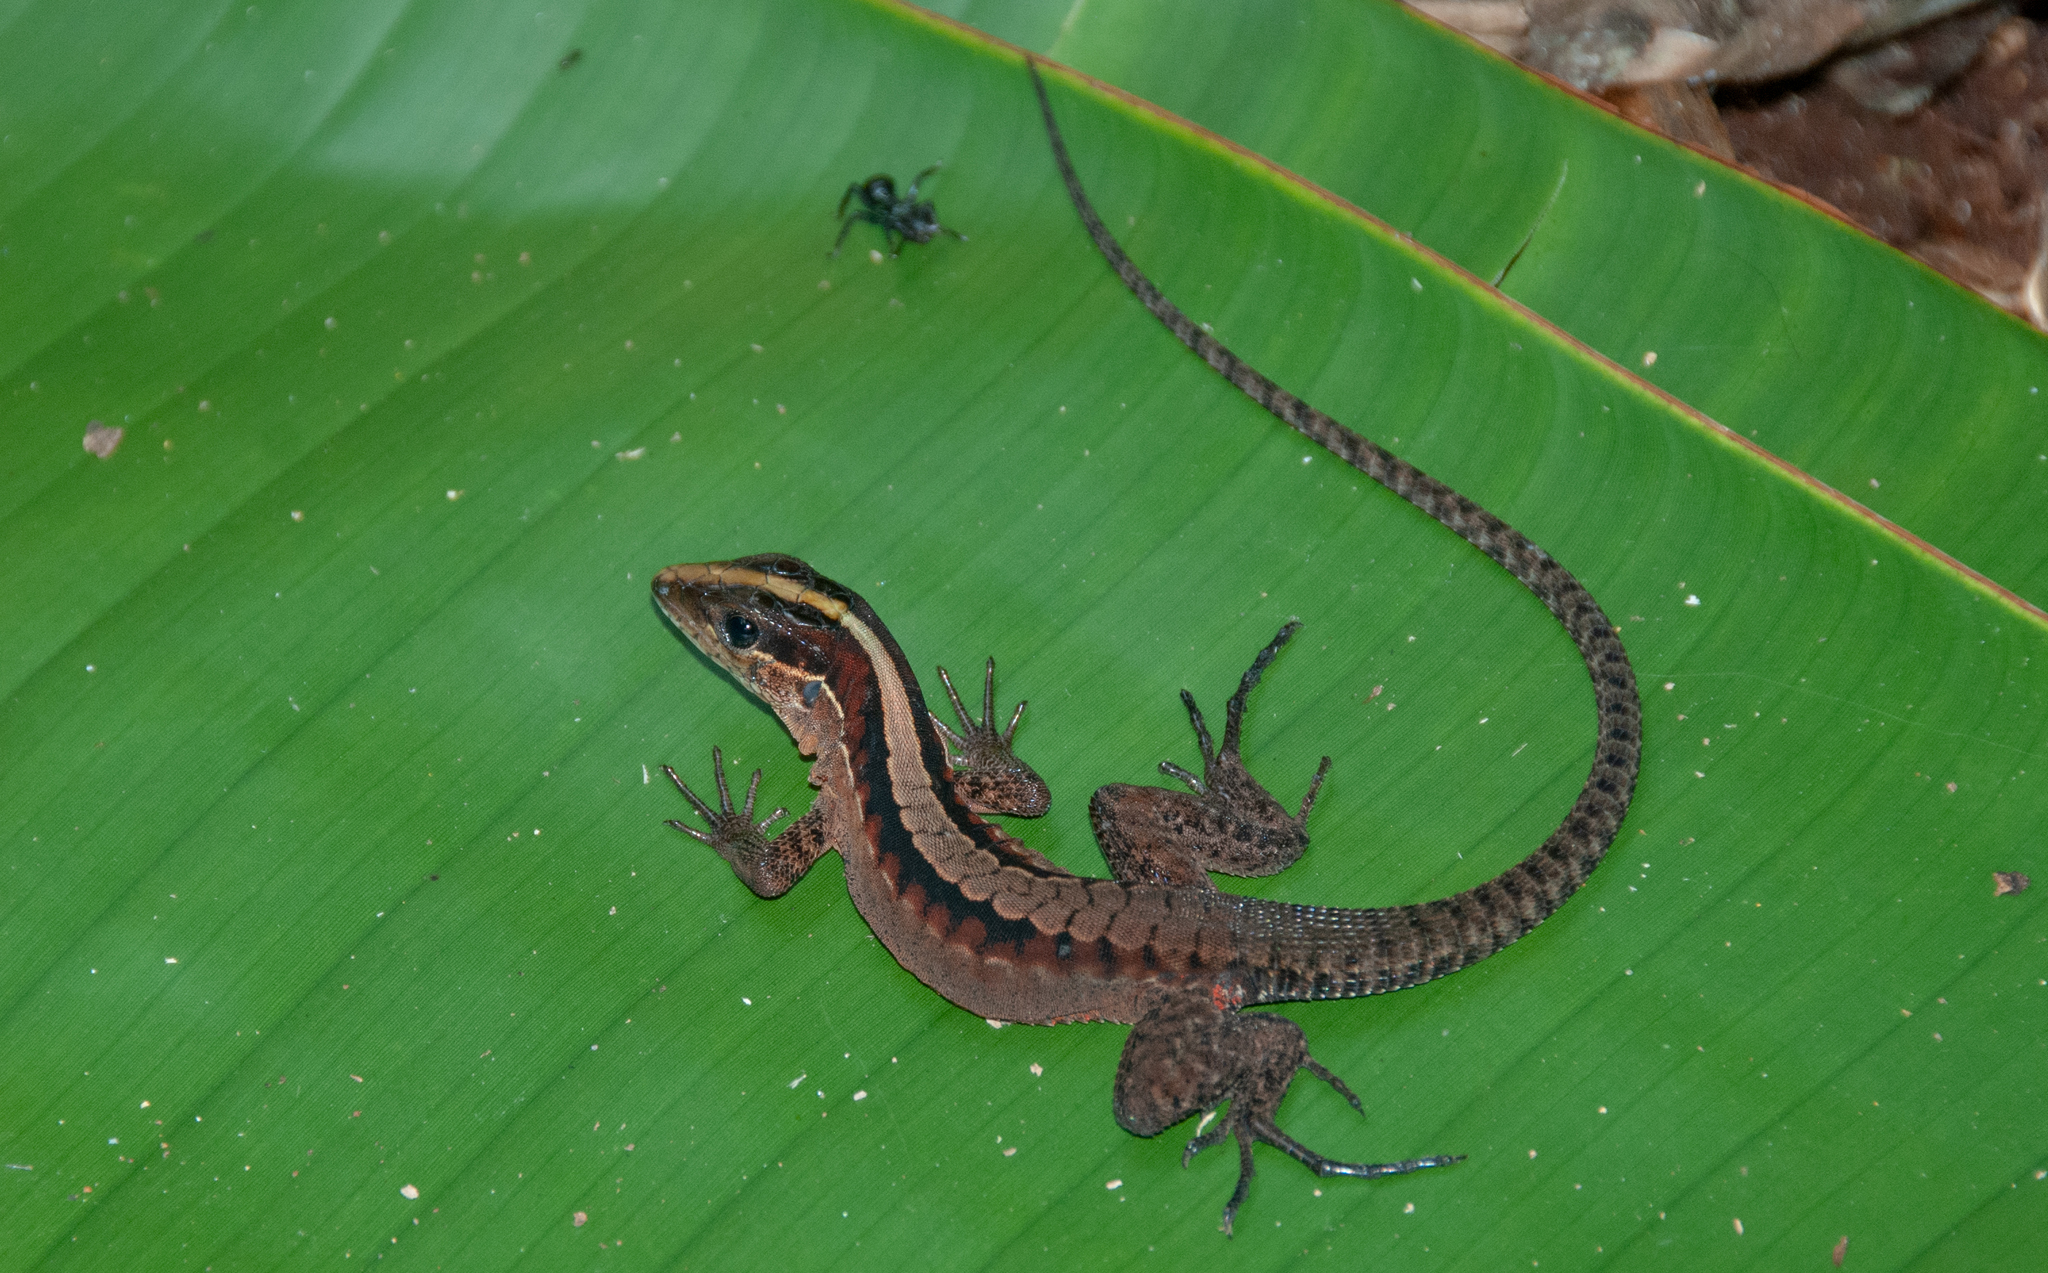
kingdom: Animalia
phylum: Chordata
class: Squamata
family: Teiidae
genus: Kentropyx
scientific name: Kentropyx pelviceps
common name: Forest whiptail
